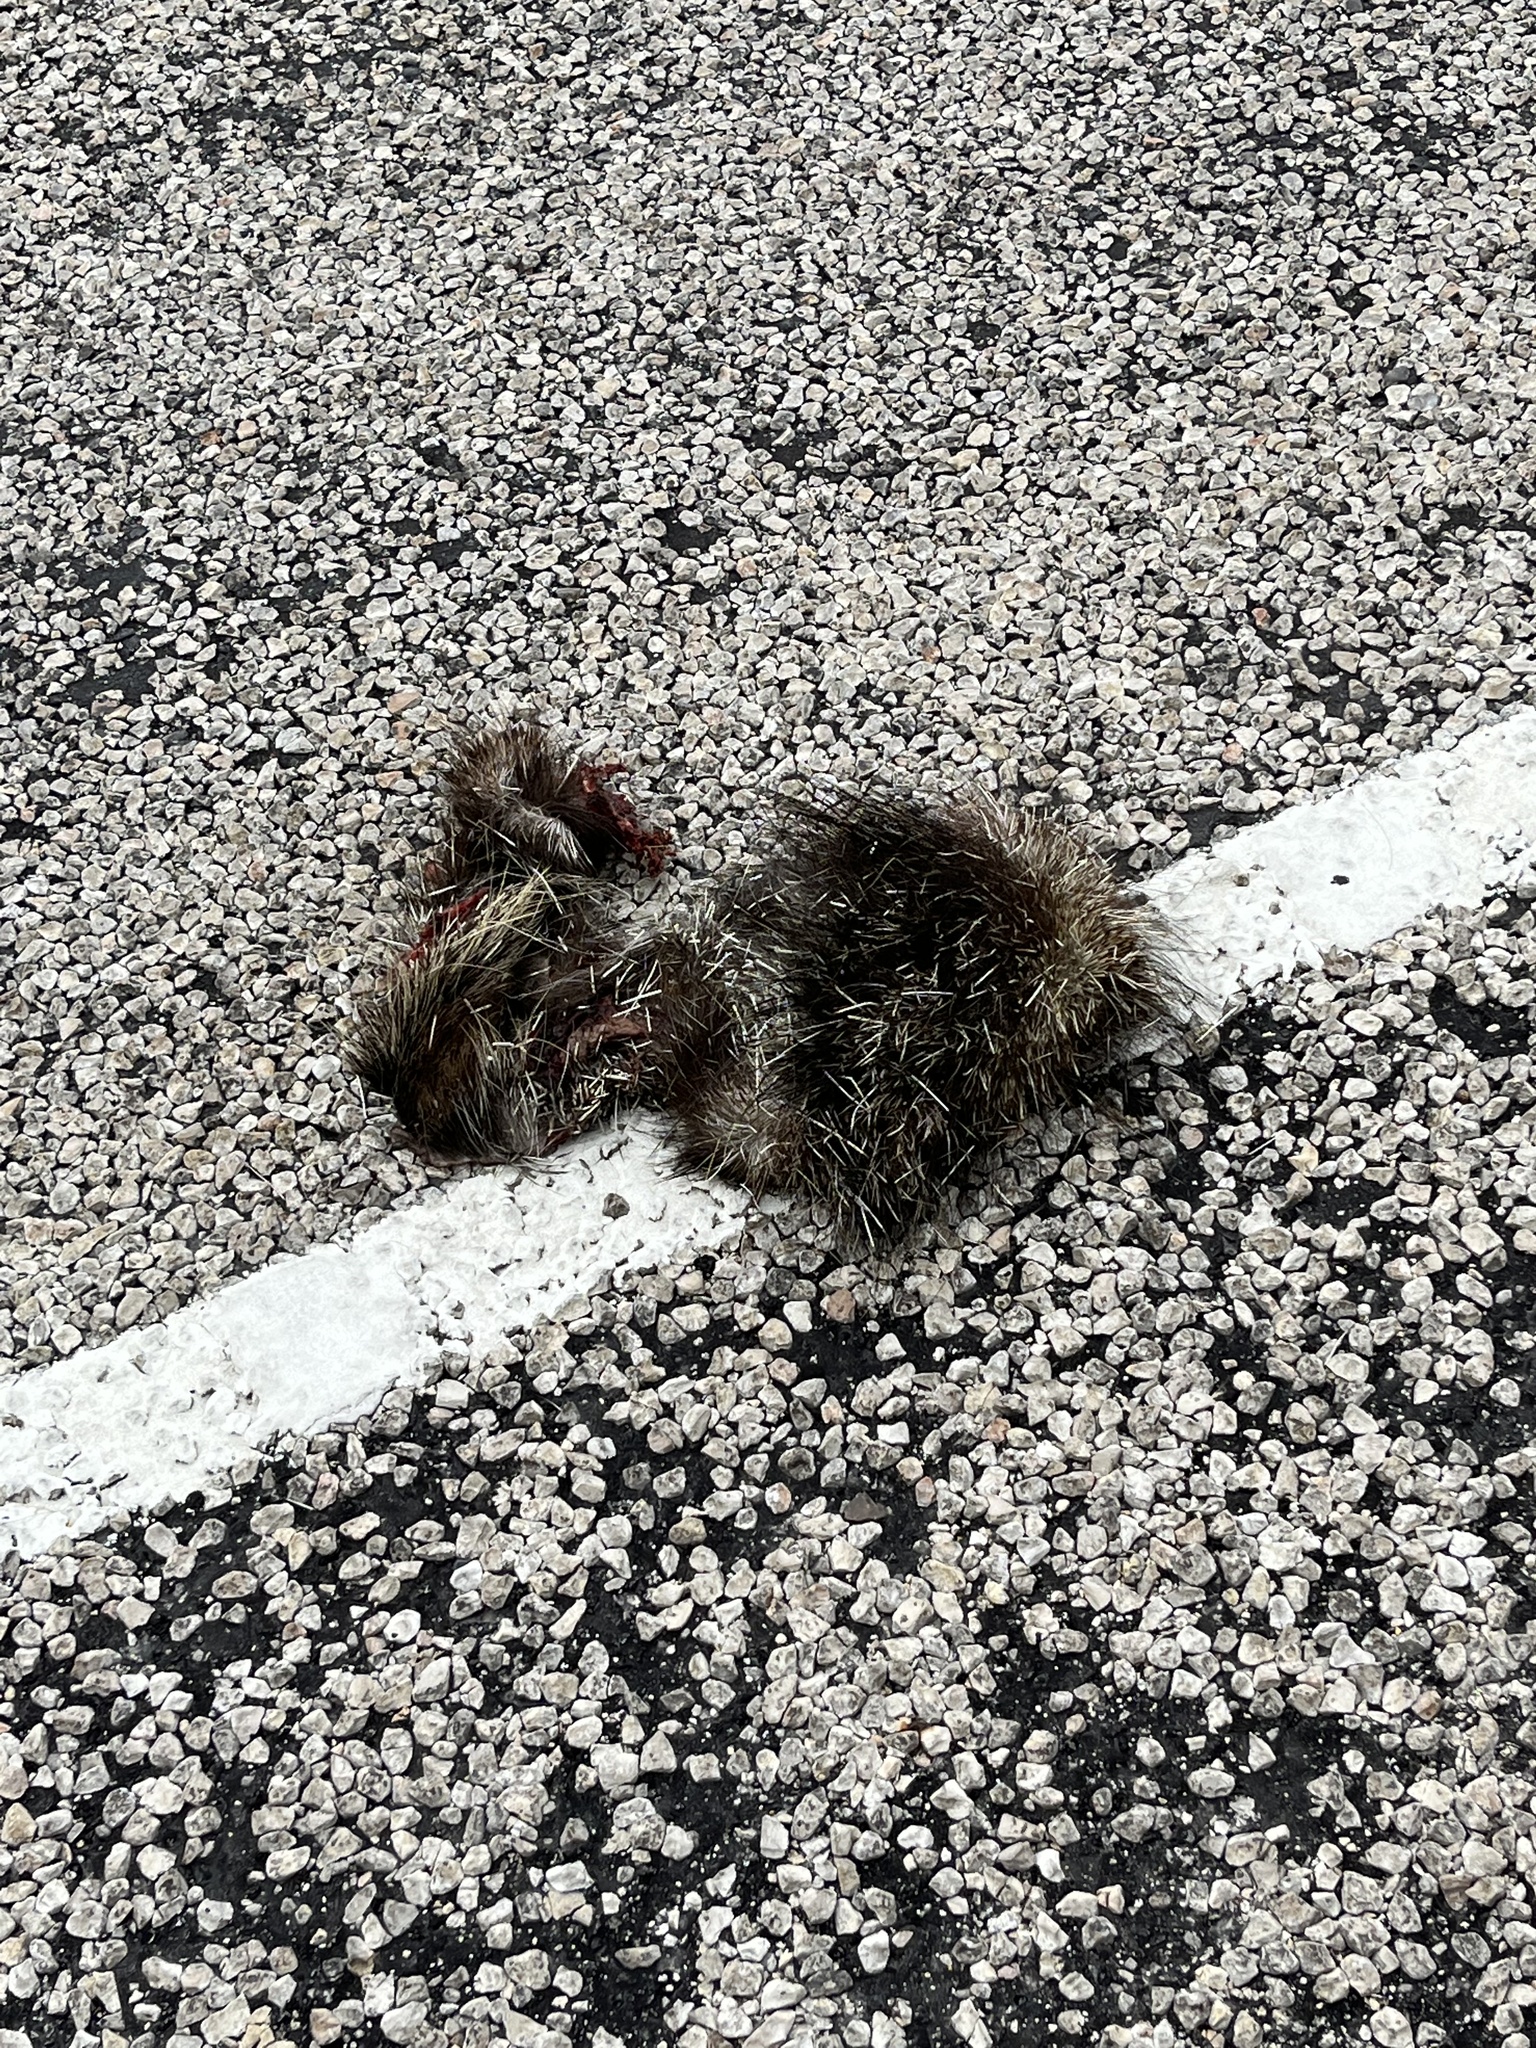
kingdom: Animalia
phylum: Chordata
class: Mammalia
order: Rodentia
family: Erethizontidae
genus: Erethizon
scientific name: Erethizon dorsatus
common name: North american porcupine
